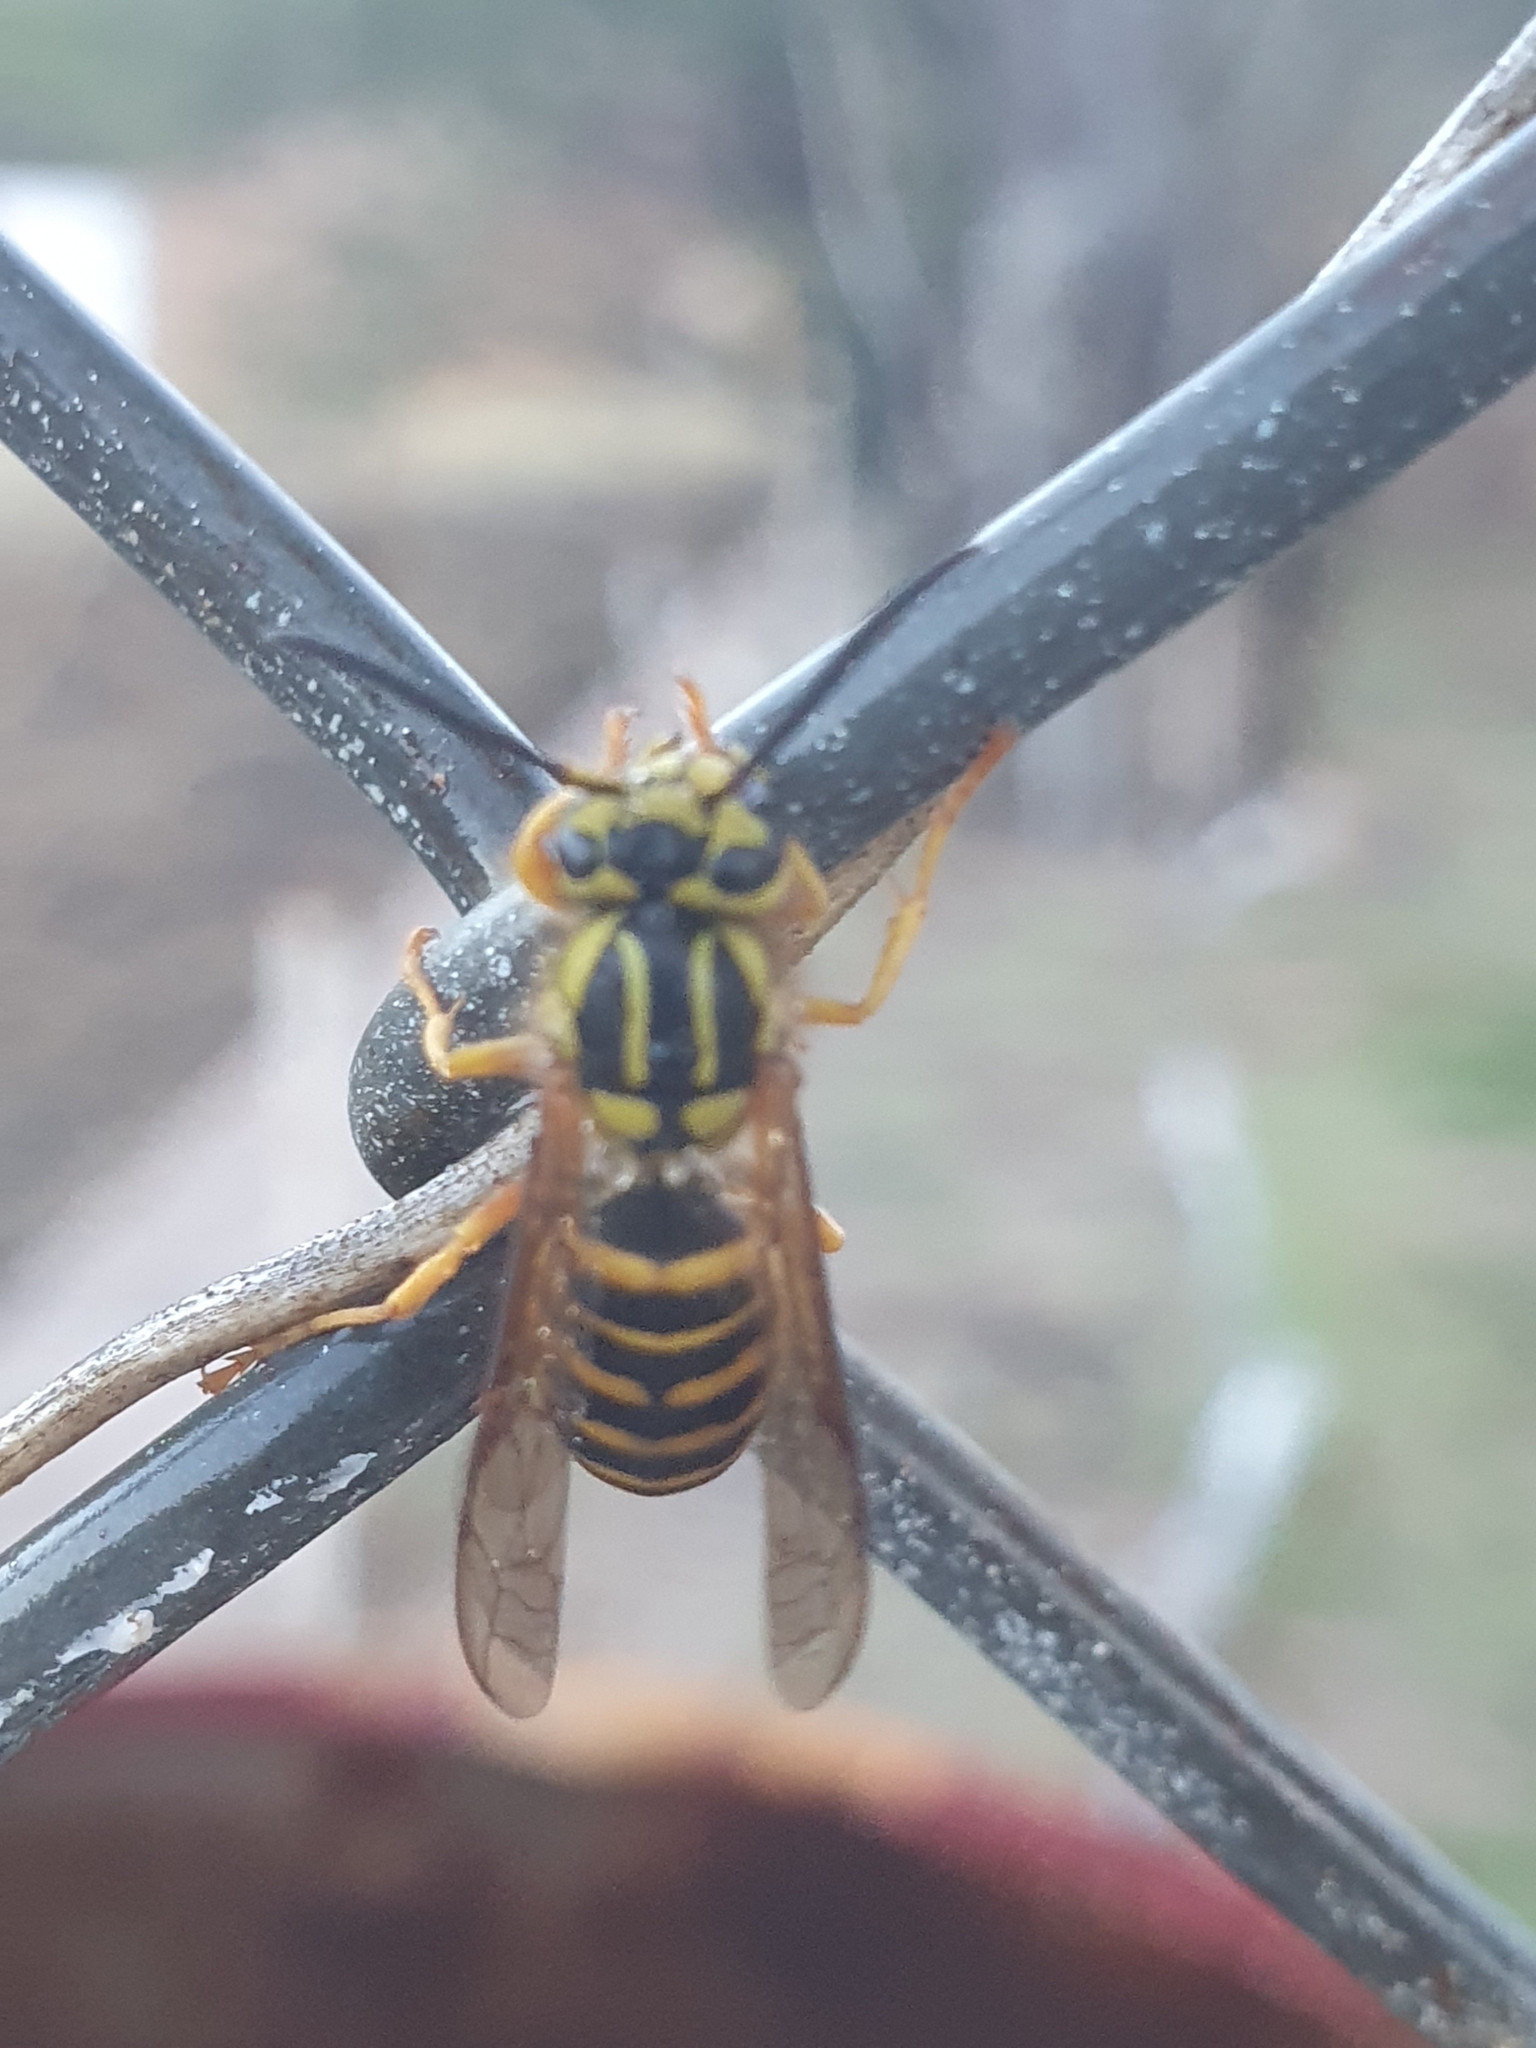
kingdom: Animalia
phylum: Arthropoda
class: Insecta
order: Hymenoptera
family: Vespidae
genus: Vespula
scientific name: Vespula squamosa
